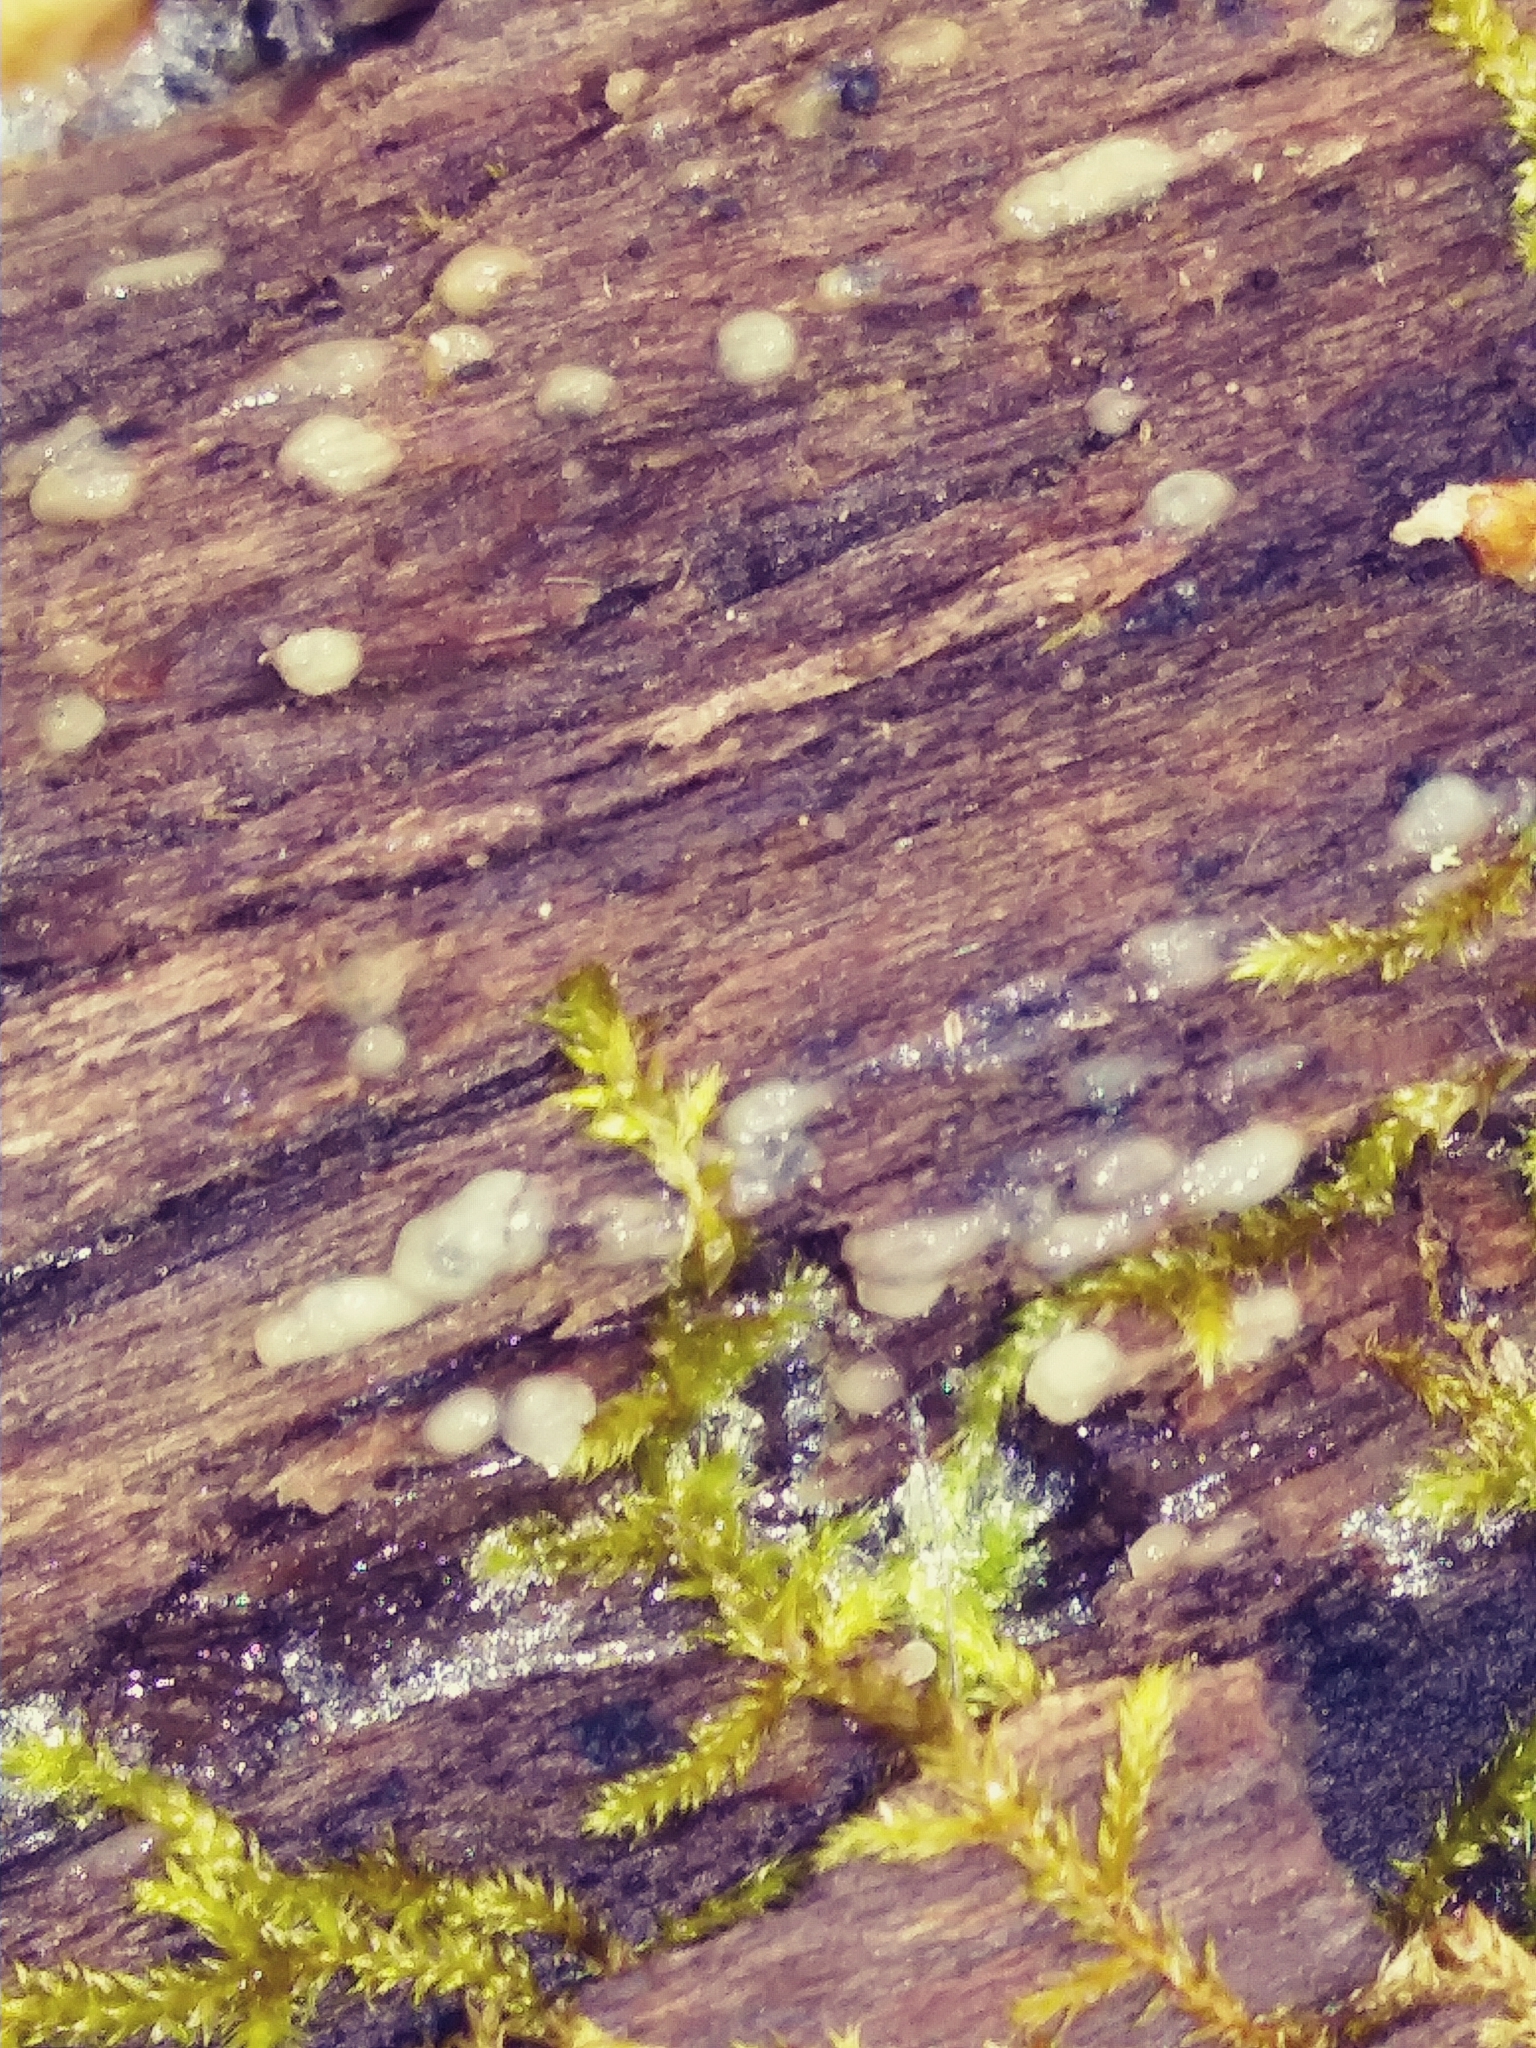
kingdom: Fungi
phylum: Basidiomycota
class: Atractiellomycetes
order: Atractiellales
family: Phleogenaceae
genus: Helicogloea
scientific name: Helicogloea compressa
